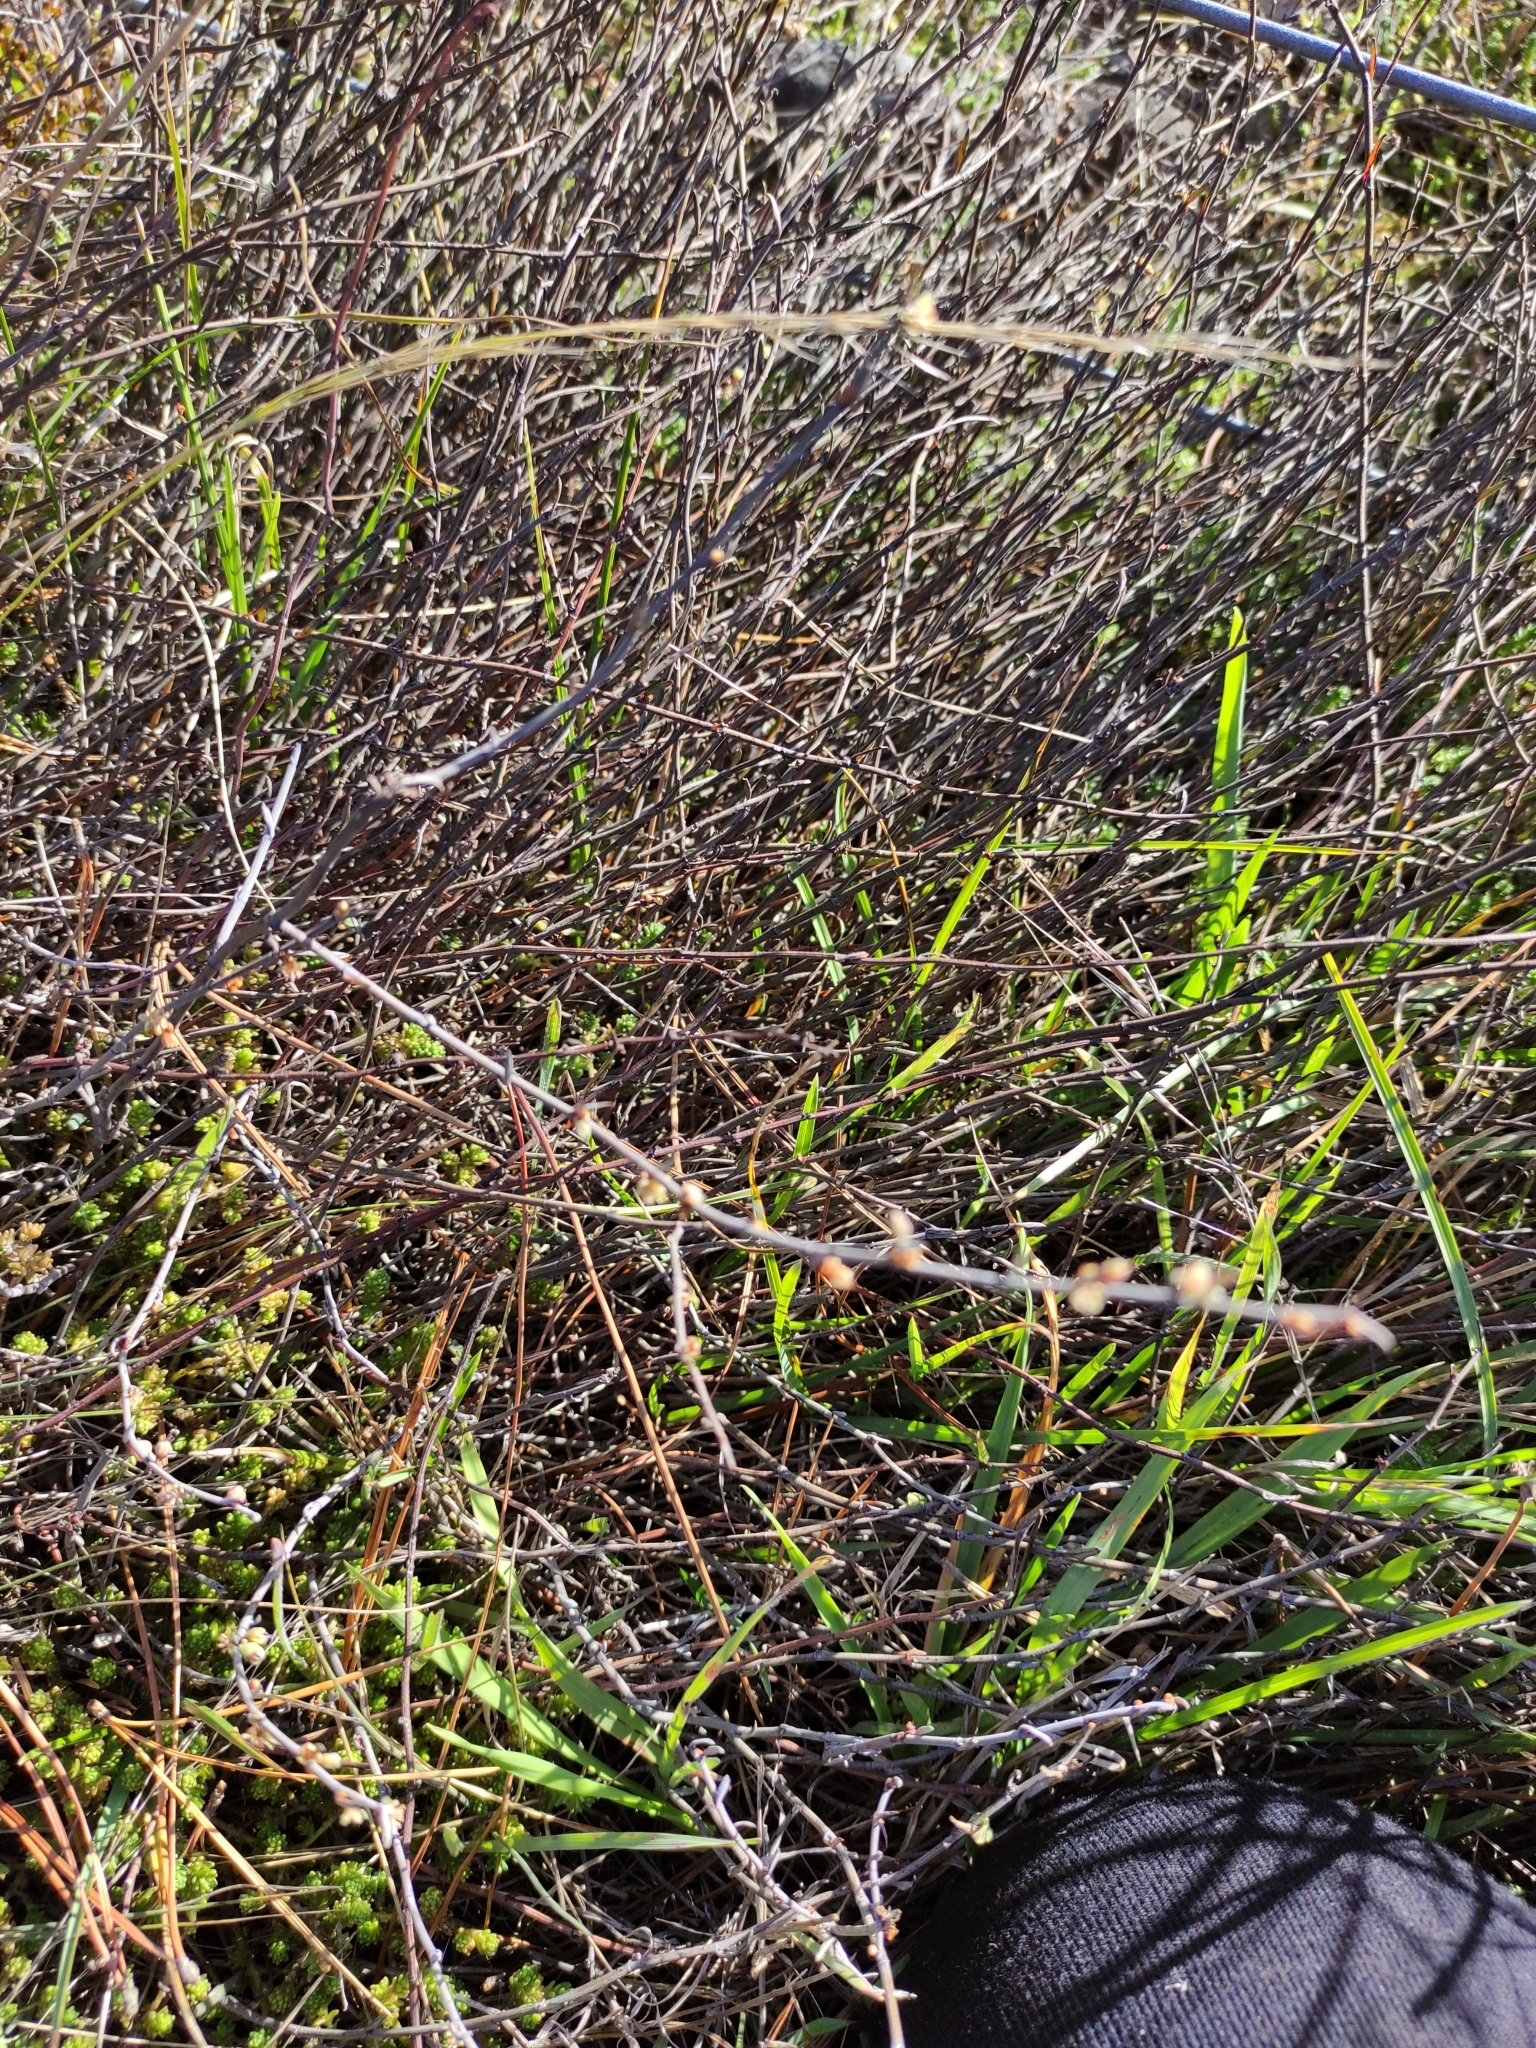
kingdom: Plantae
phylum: Tracheophyta
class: Magnoliopsida
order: Caryophyllales
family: Polygonaceae
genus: Muehlenbeckia
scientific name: Muehlenbeckia ephedroides
